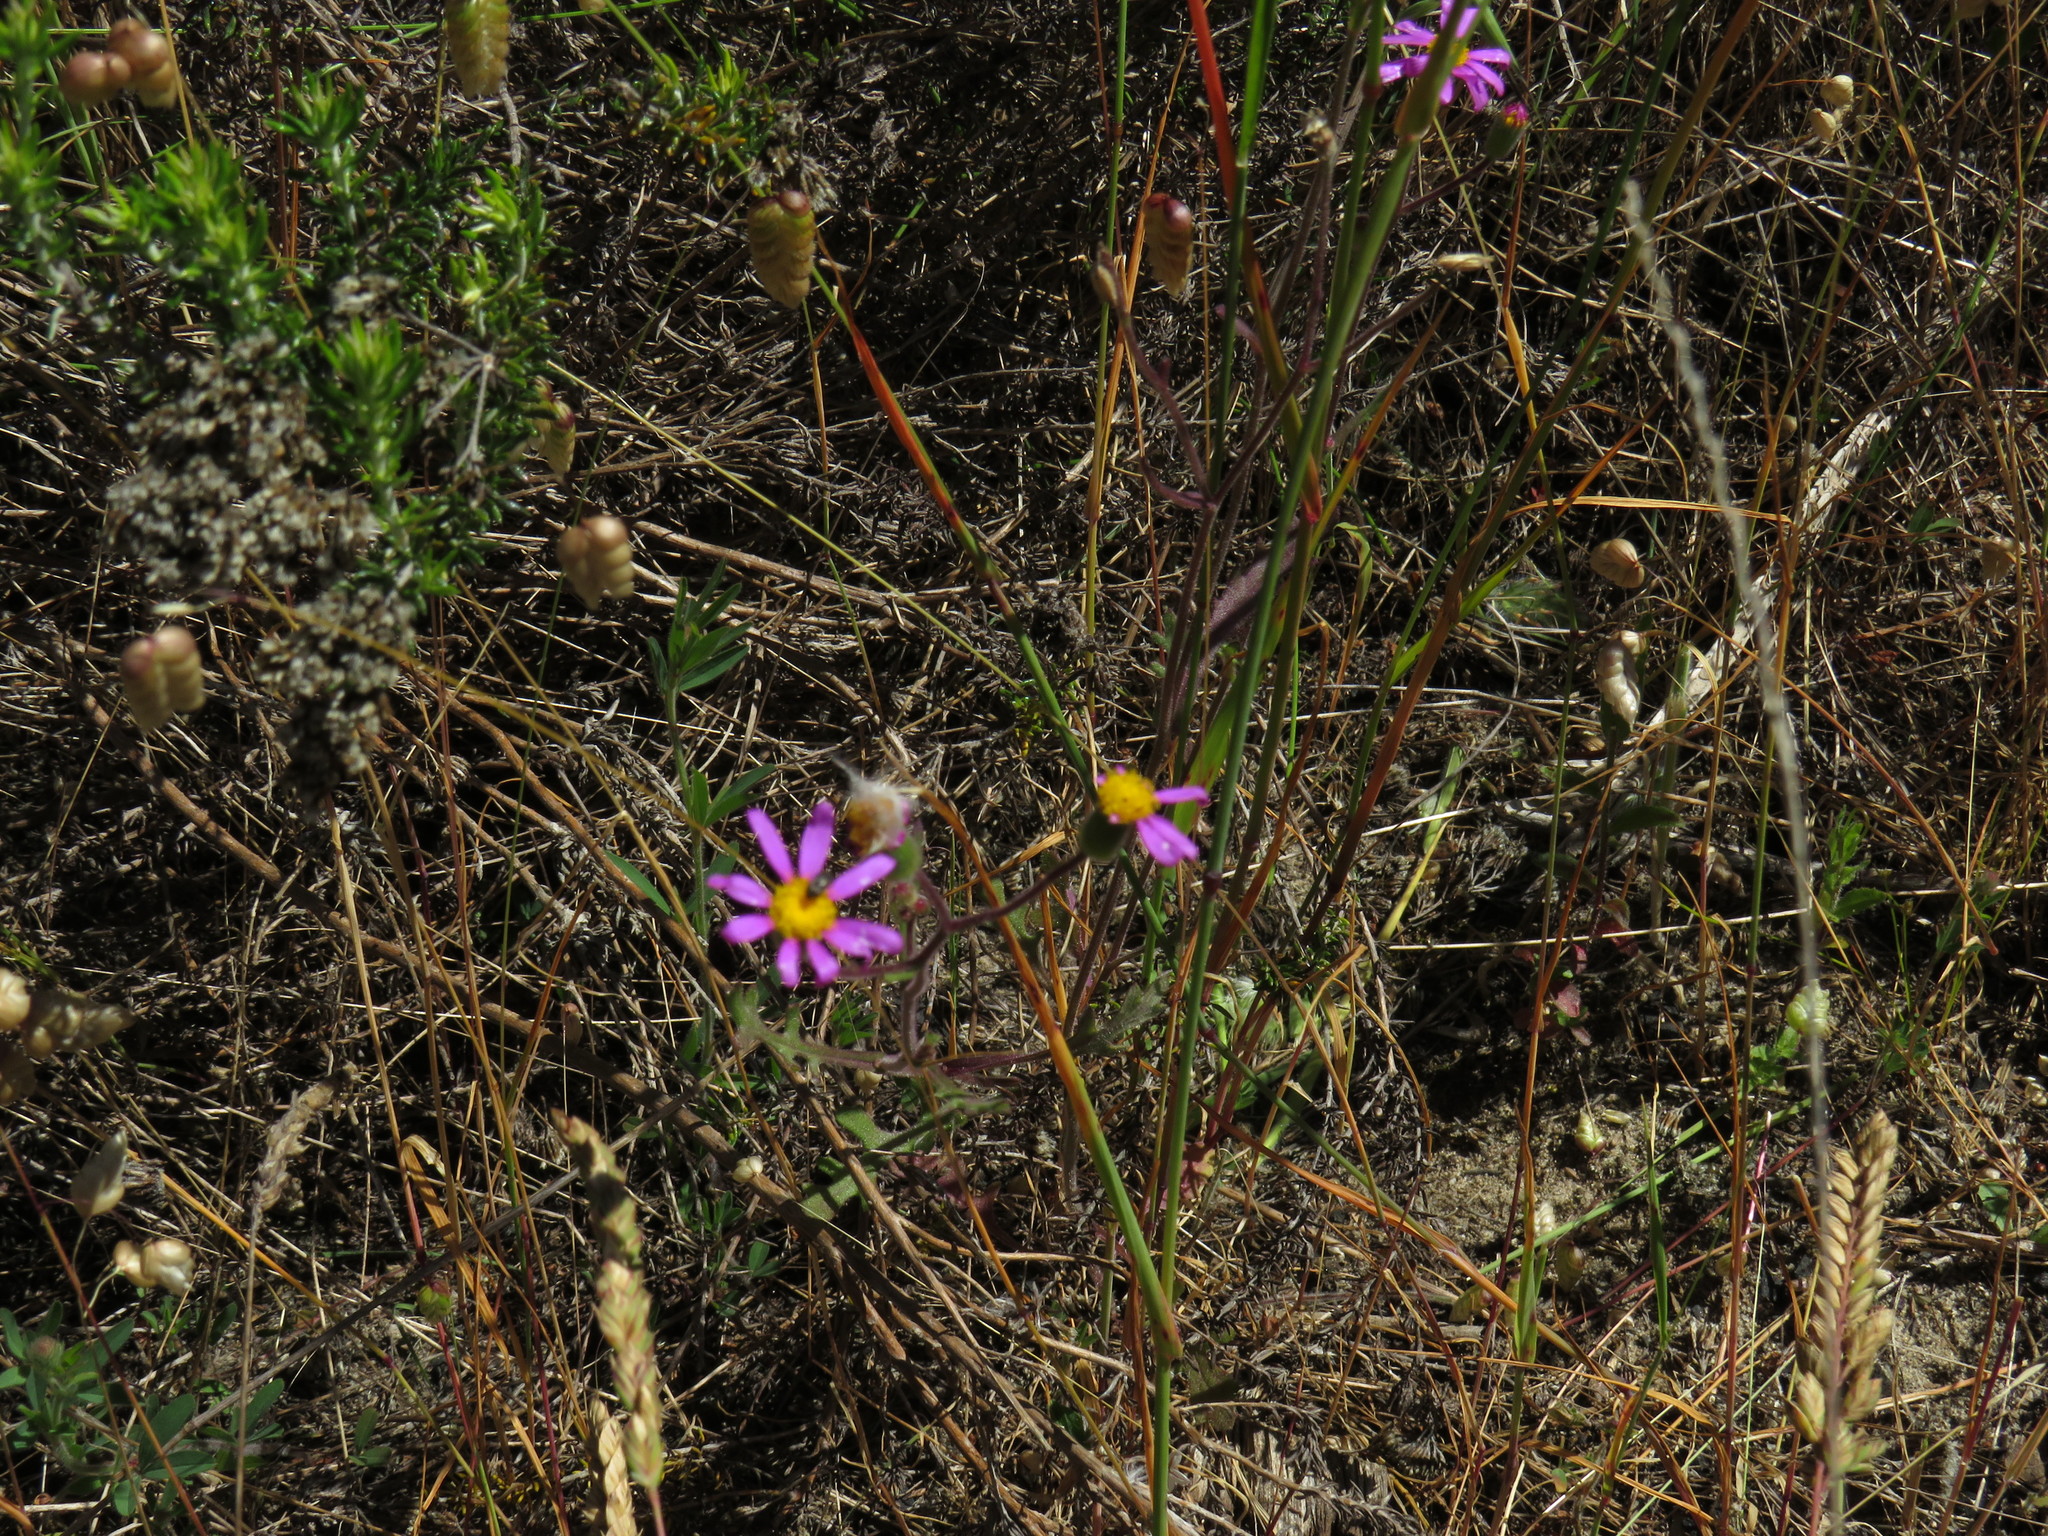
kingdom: Plantae
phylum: Tracheophyta
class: Magnoliopsida
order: Asterales
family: Asteraceae
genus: Senecio
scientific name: Senecio arenarius
